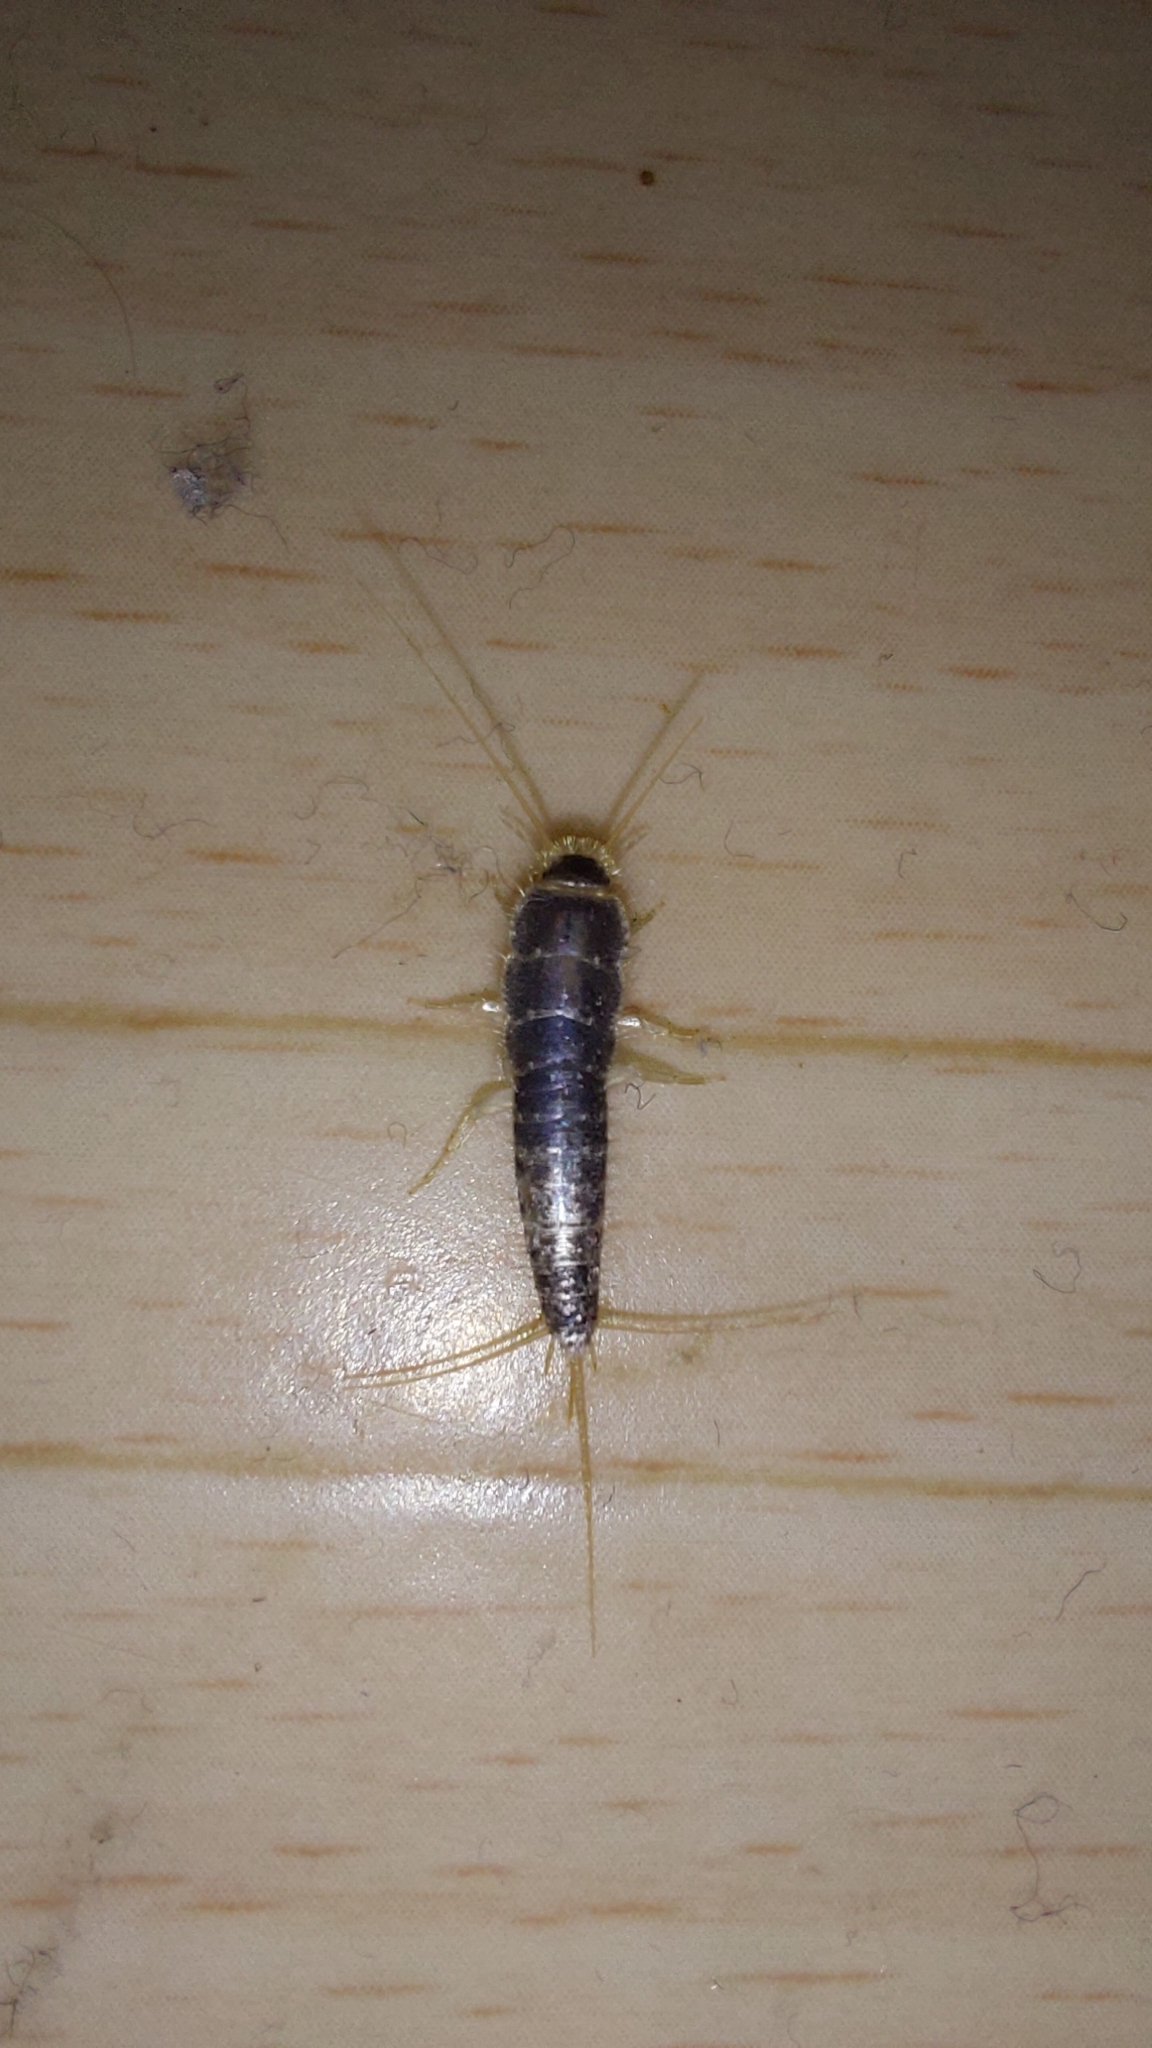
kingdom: Animalia
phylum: Arthropoda
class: Insecta
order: Zygentoma
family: Lepismatidae
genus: Ctenolepisma
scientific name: Ctenolepisma longicaudatum
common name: Silverfish
